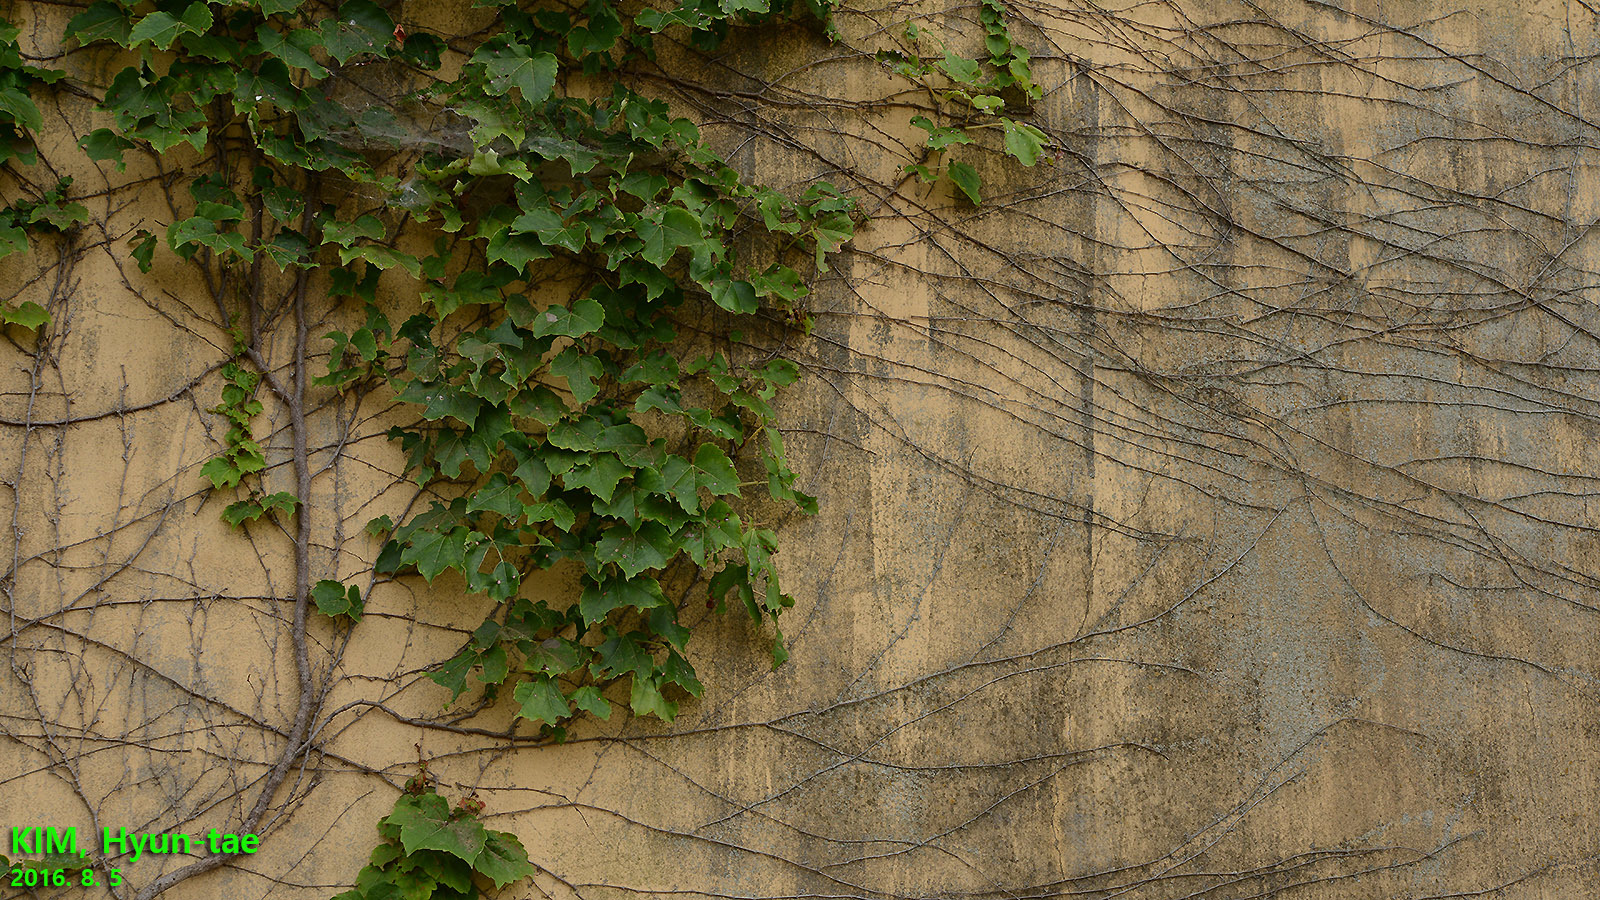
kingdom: Plantae
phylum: Tracheophyta
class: Magnoliopsida
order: Vitales
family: Vitaceae
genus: Parthenocissus
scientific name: Parthenocissus tricuspidata
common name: Boston ivy
